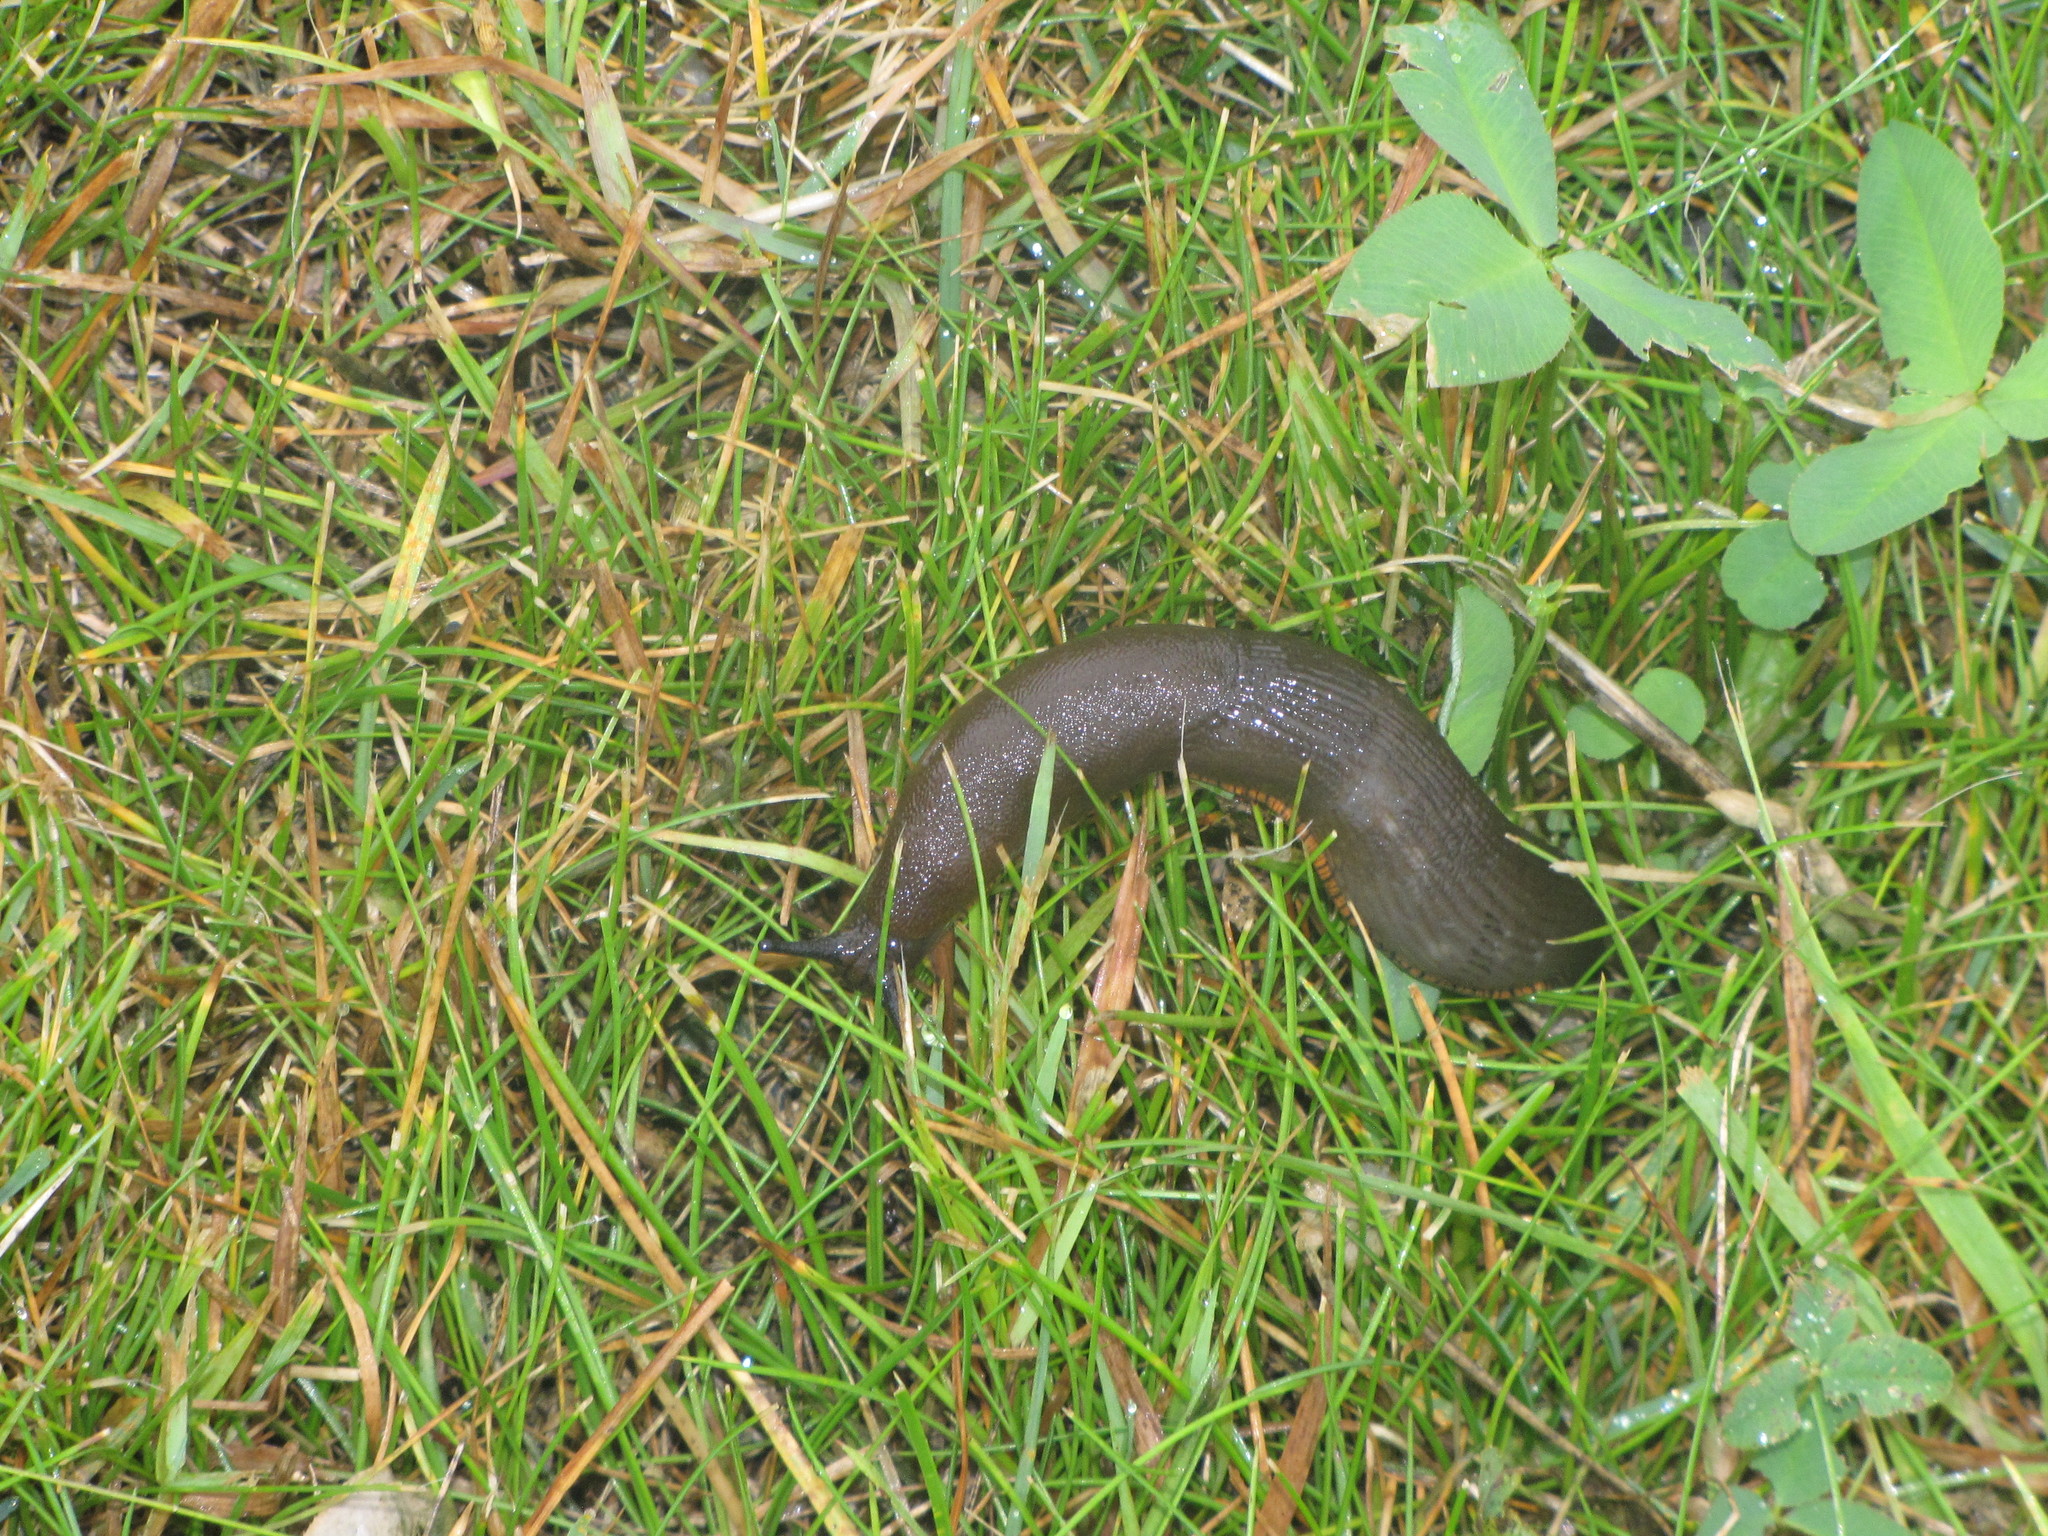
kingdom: Animalia
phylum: Mollusca
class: Gastropoda
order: Stylommatophora
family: Arionidae
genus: Arion
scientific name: Arion rufus
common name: Chocolate arion
